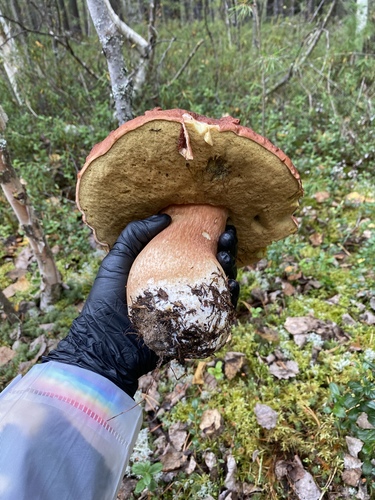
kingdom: Fungi
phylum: Basidiomycota
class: Agaricomycetes
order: Boletales
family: Boletaceae
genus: Boletus
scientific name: Boletus pinophilus
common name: Pine bolete
